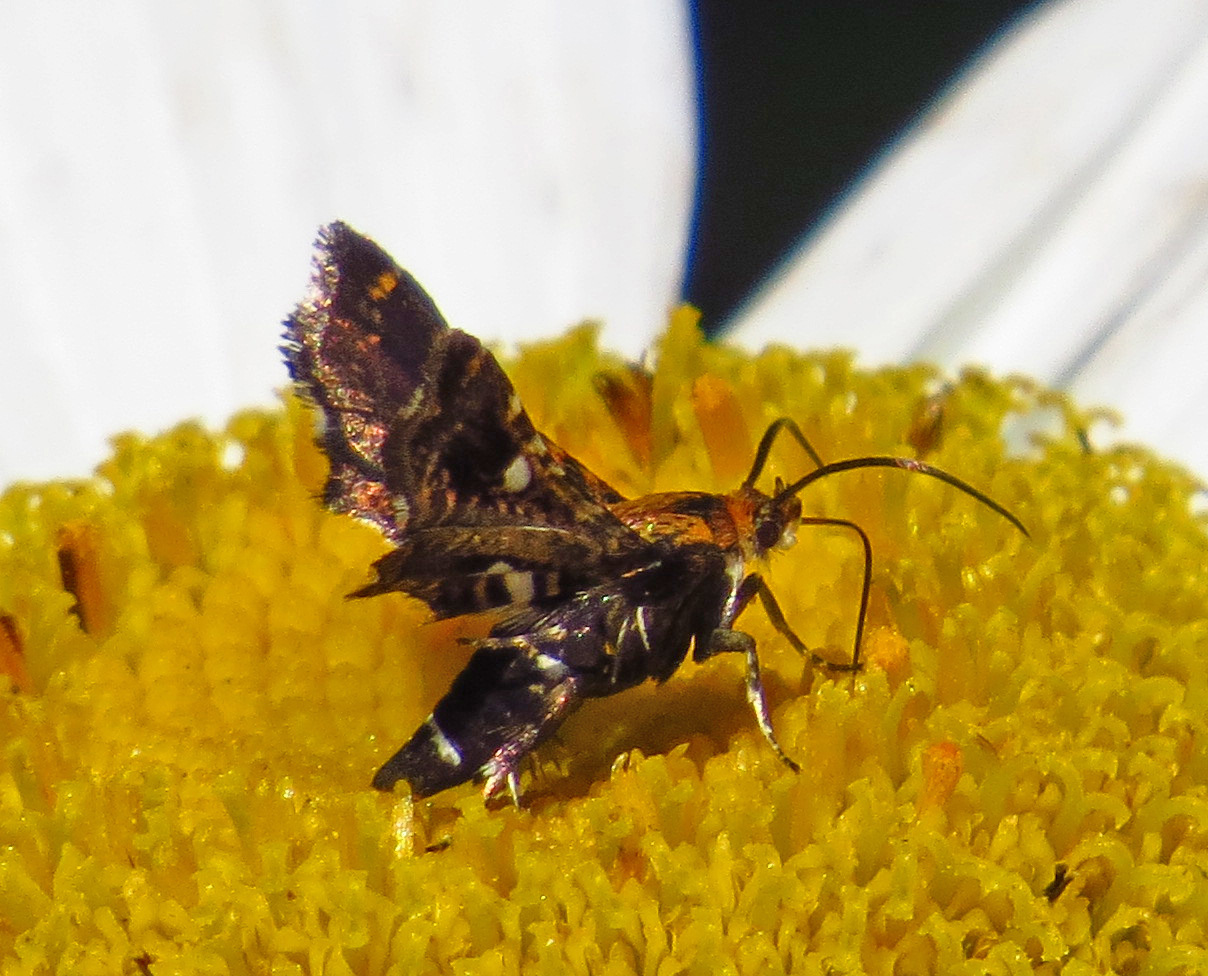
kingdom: Animalia
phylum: Arthropoda
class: Insecta
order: Lepidoptera
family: Thyrididae
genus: Thyris
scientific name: Thyris maculata
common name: Spotted thyris moth
